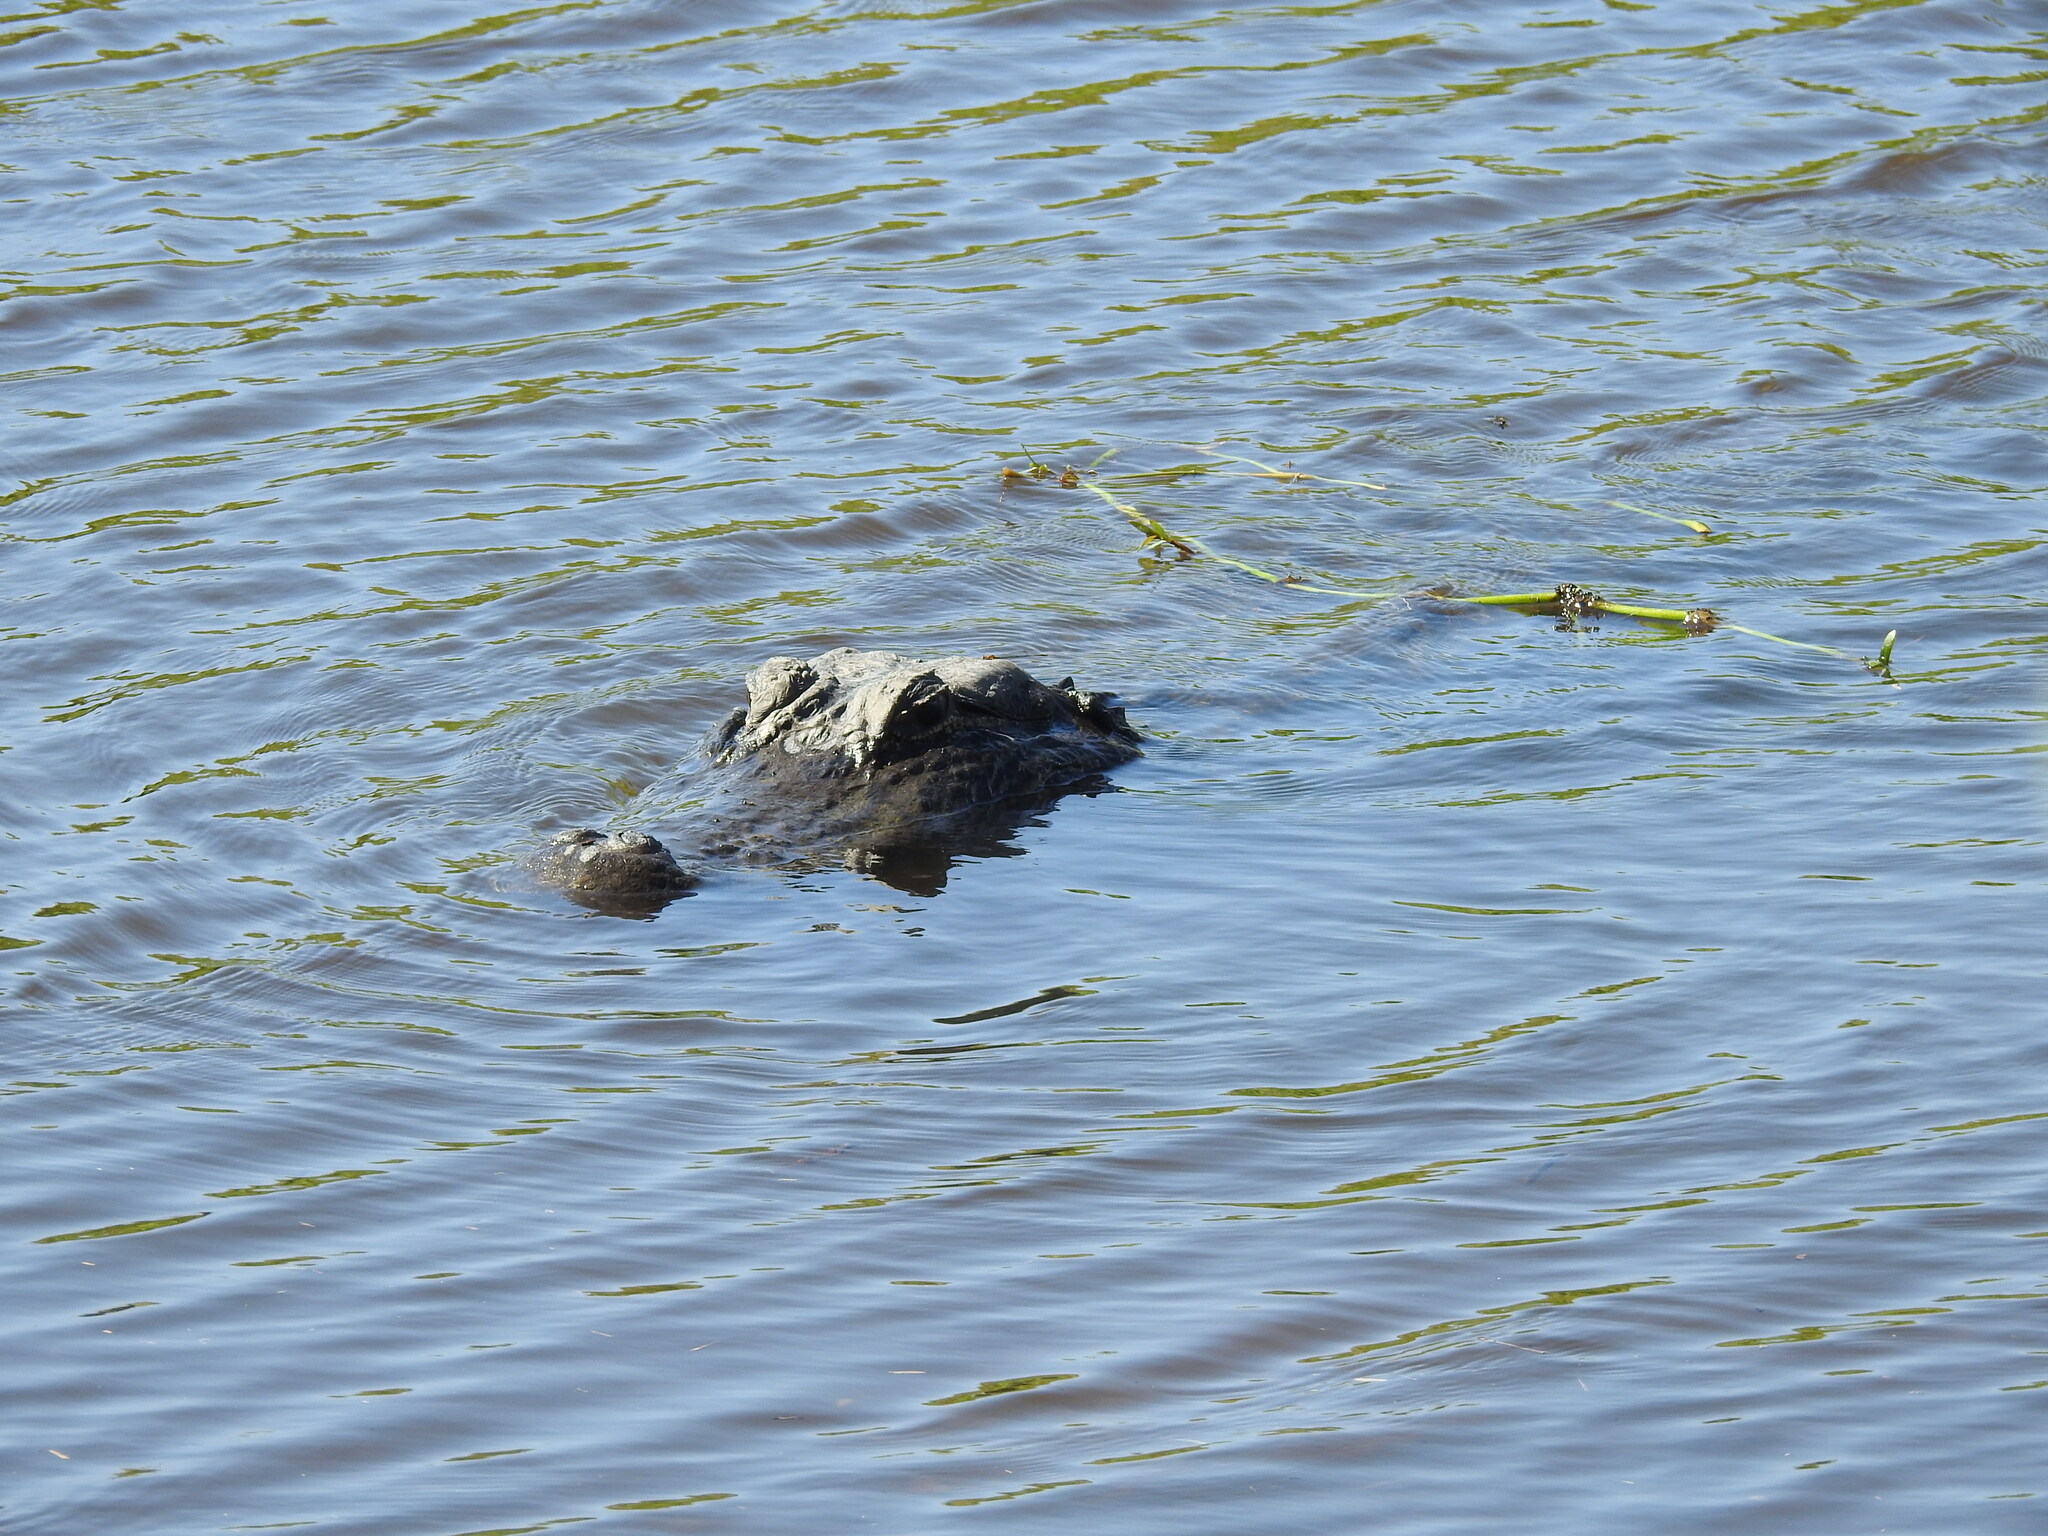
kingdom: Animalia
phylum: Chordata
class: Crocodylia
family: Alligatoridae
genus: Alligator
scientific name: Alligator mississippiensis
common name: American alligator
